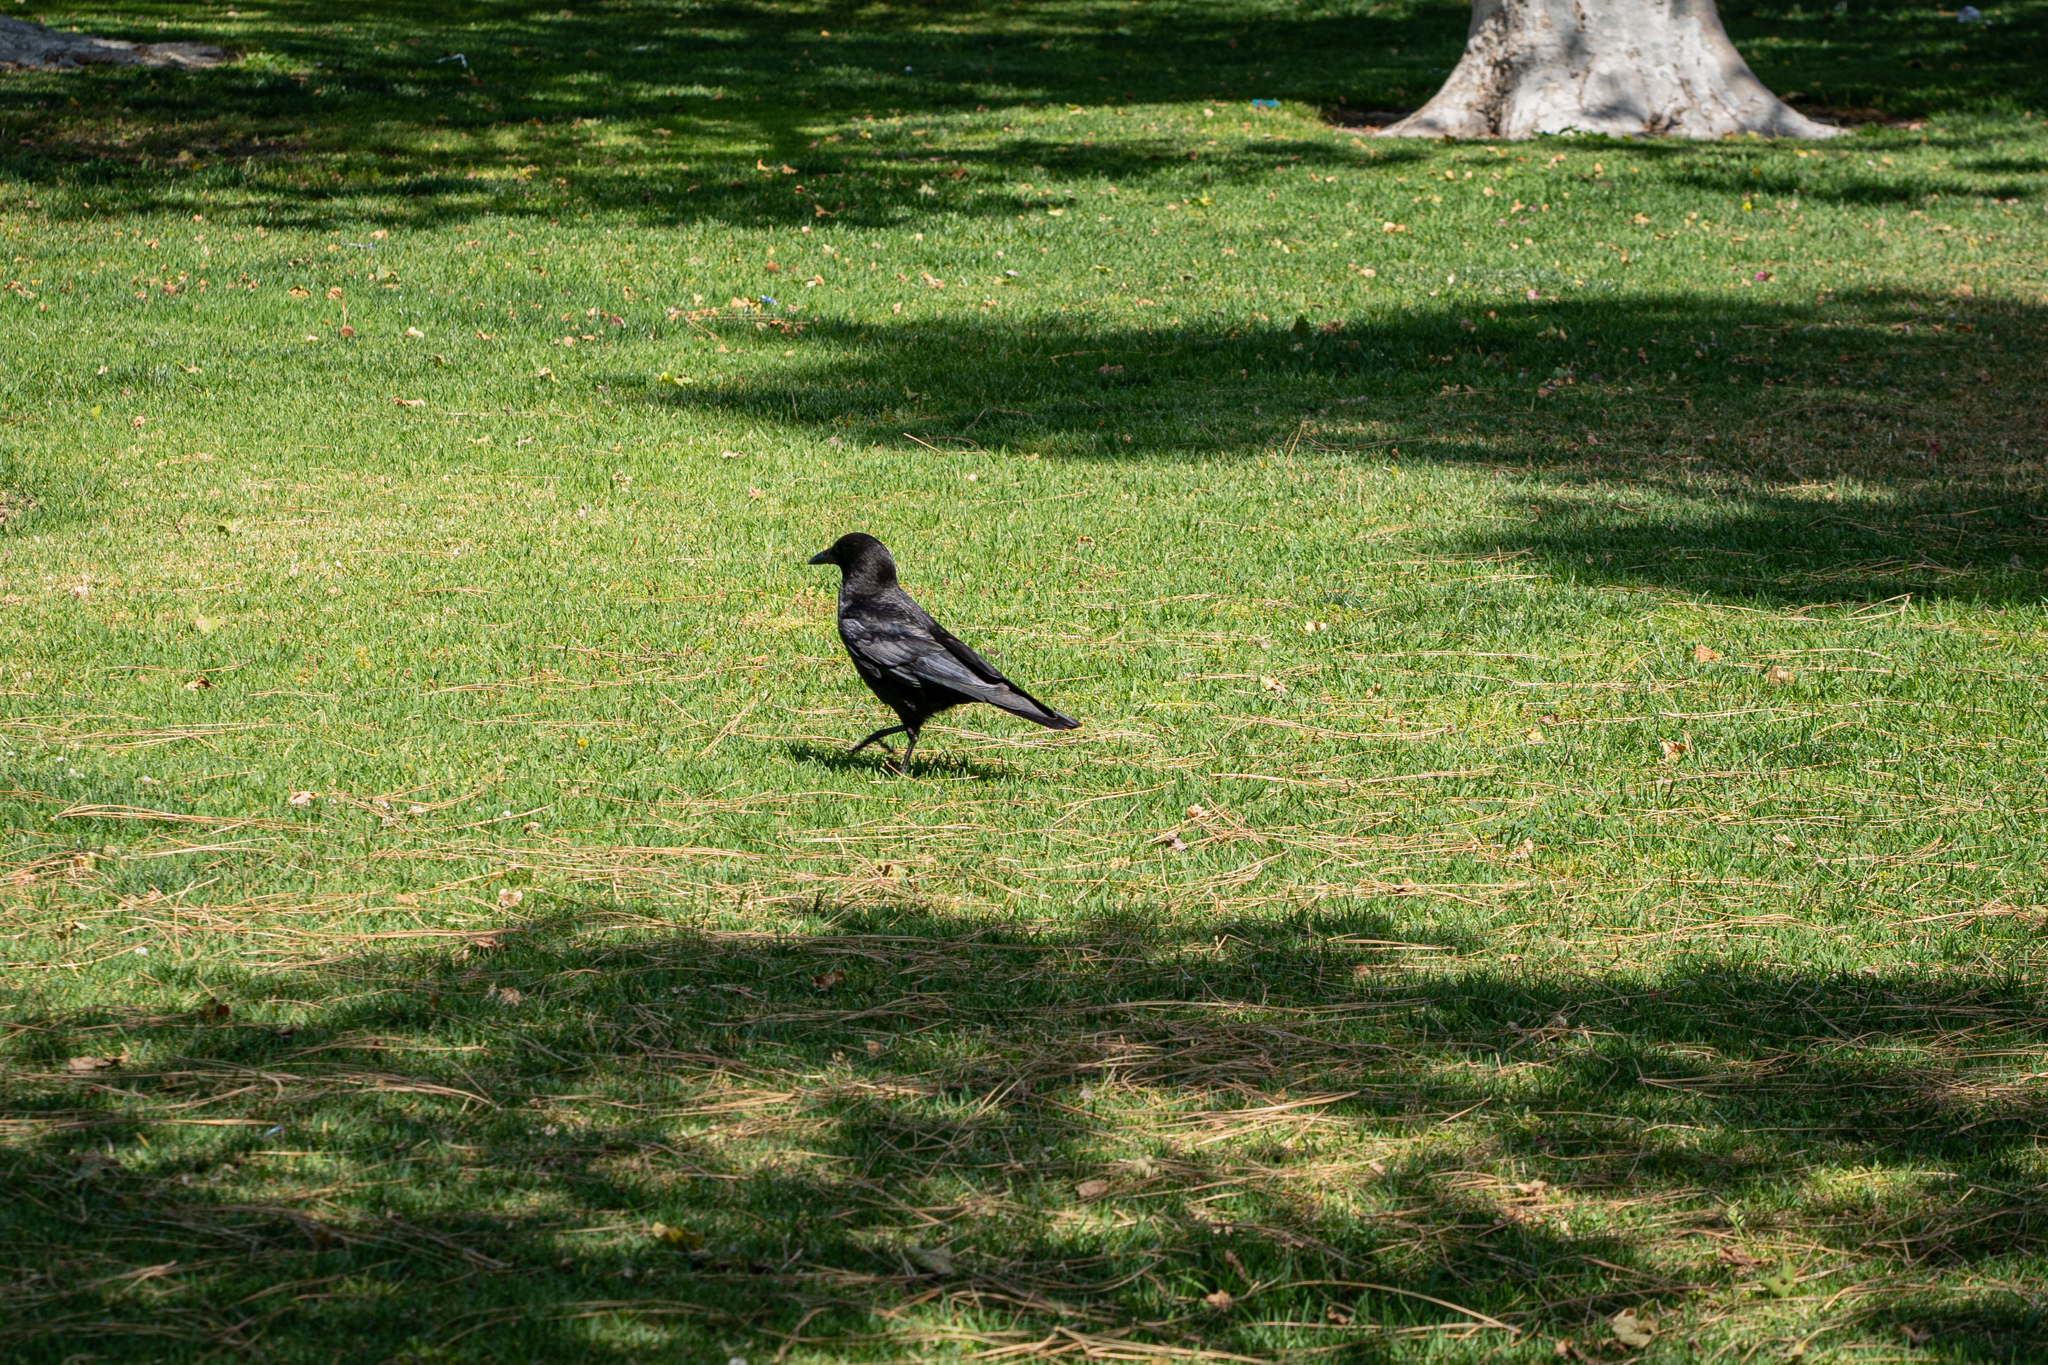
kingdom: Animalia
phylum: Chordata
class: Aves
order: Passeriformes
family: Corvidae
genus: Corvus
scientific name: Corvus brachyrhynchos
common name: American crow
